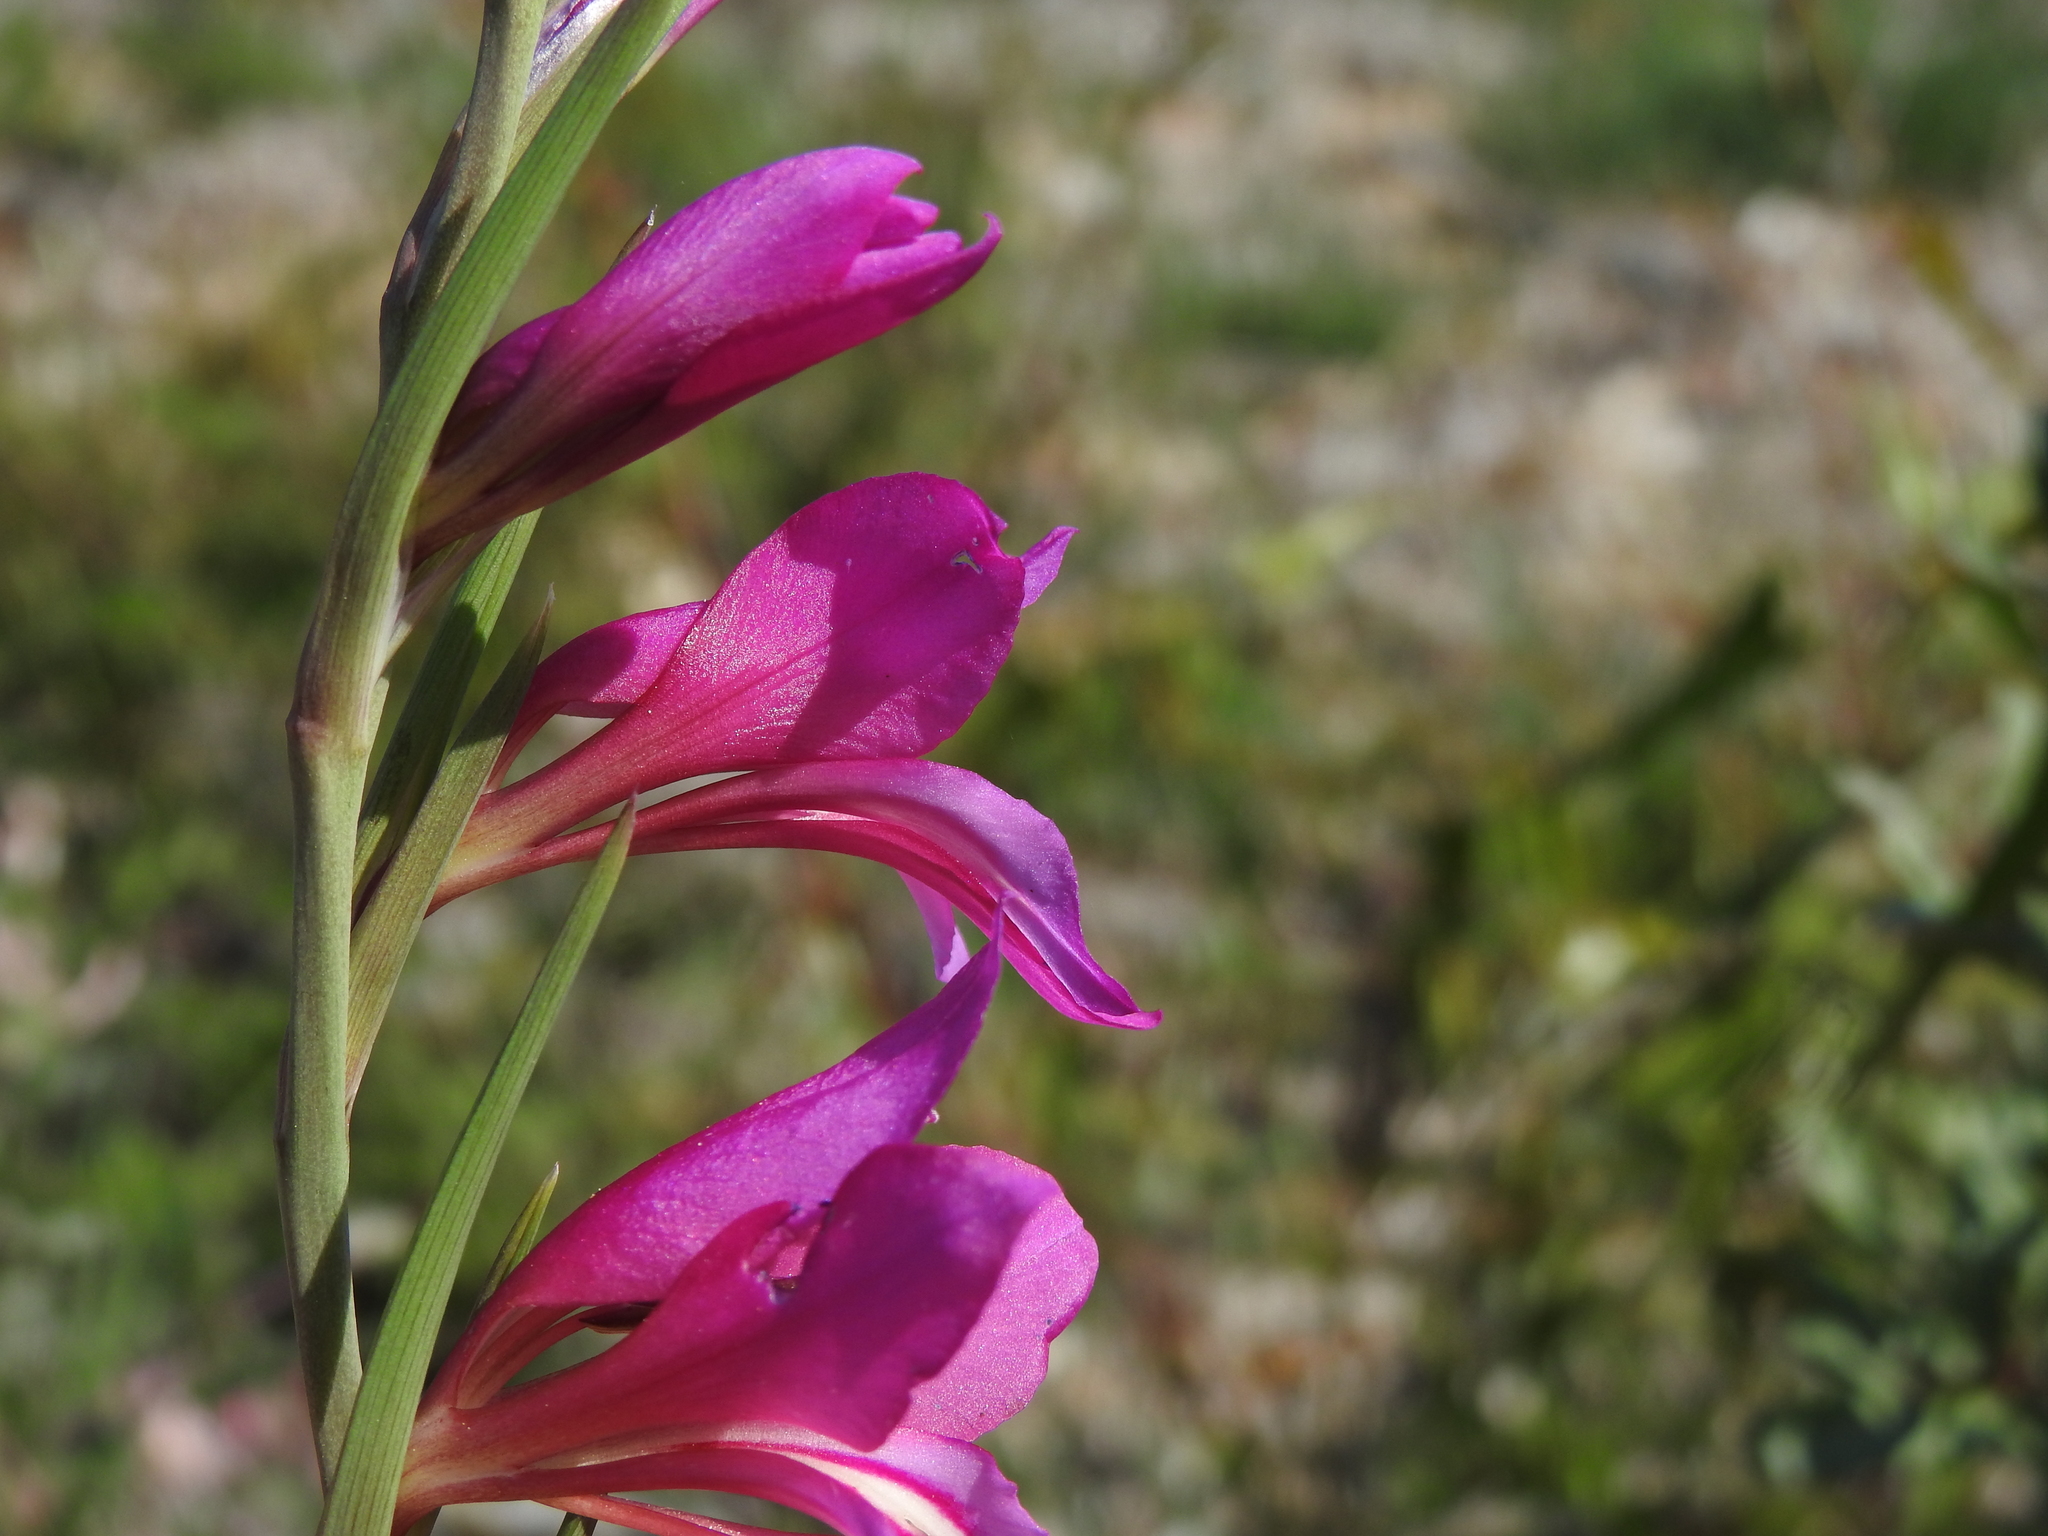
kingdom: Plantae
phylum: Tracheophyta
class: Liliopsida
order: Asparagales
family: Iridaceae
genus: Gladiolus
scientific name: Gladiolus dubius
